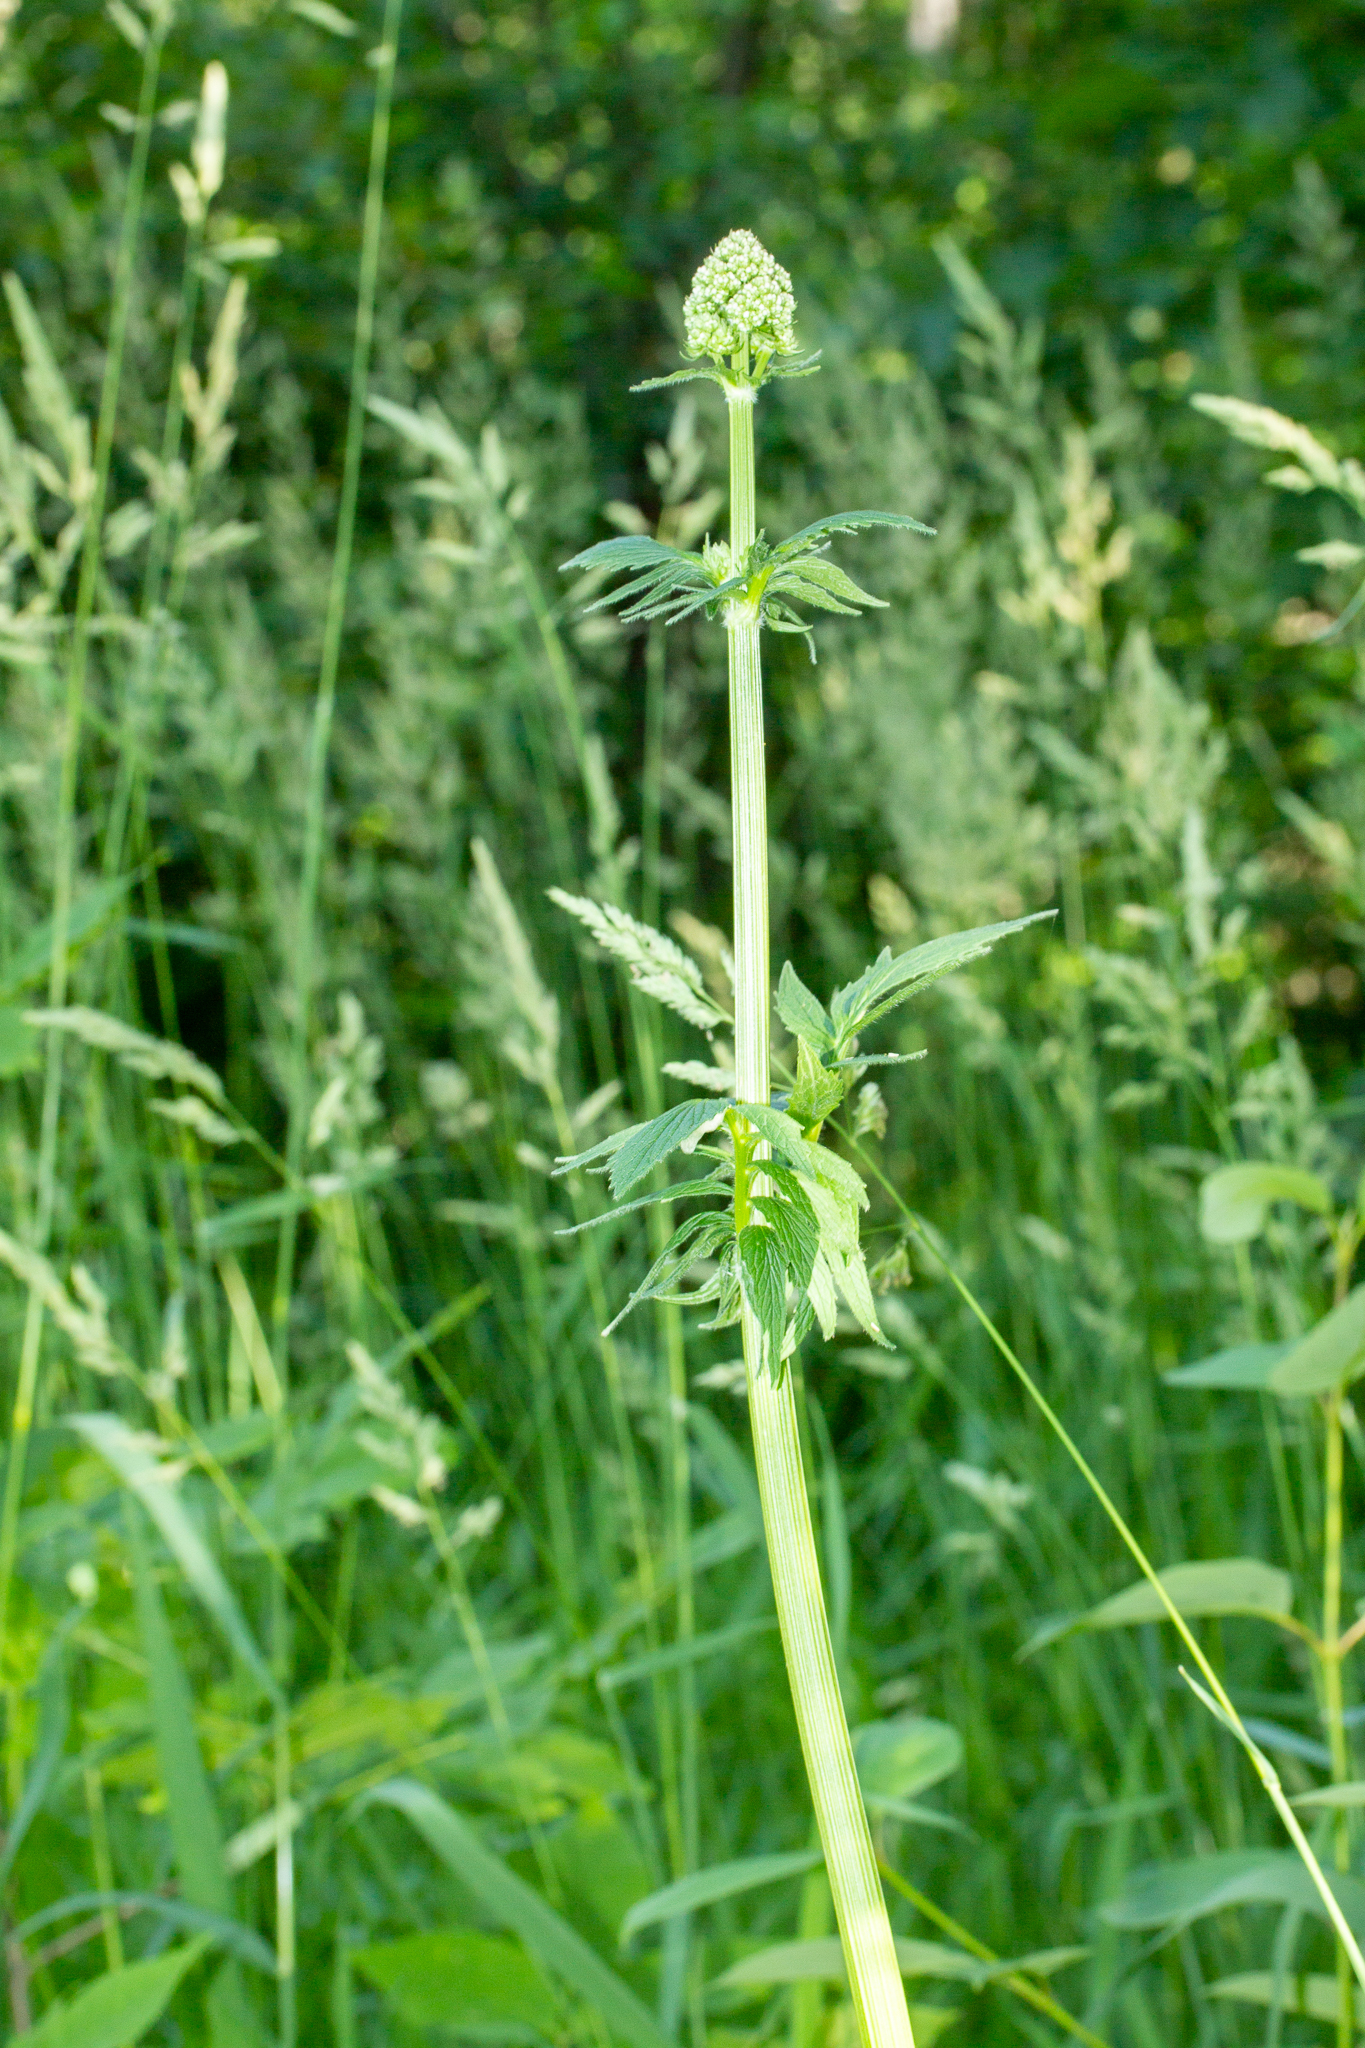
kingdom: Plantae
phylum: Tracheophyta
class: Magnoliopsida
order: Dipsacales
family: Caprifoliaceae
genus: Valeriana
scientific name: Valeriana officinalis
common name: Common valerian
